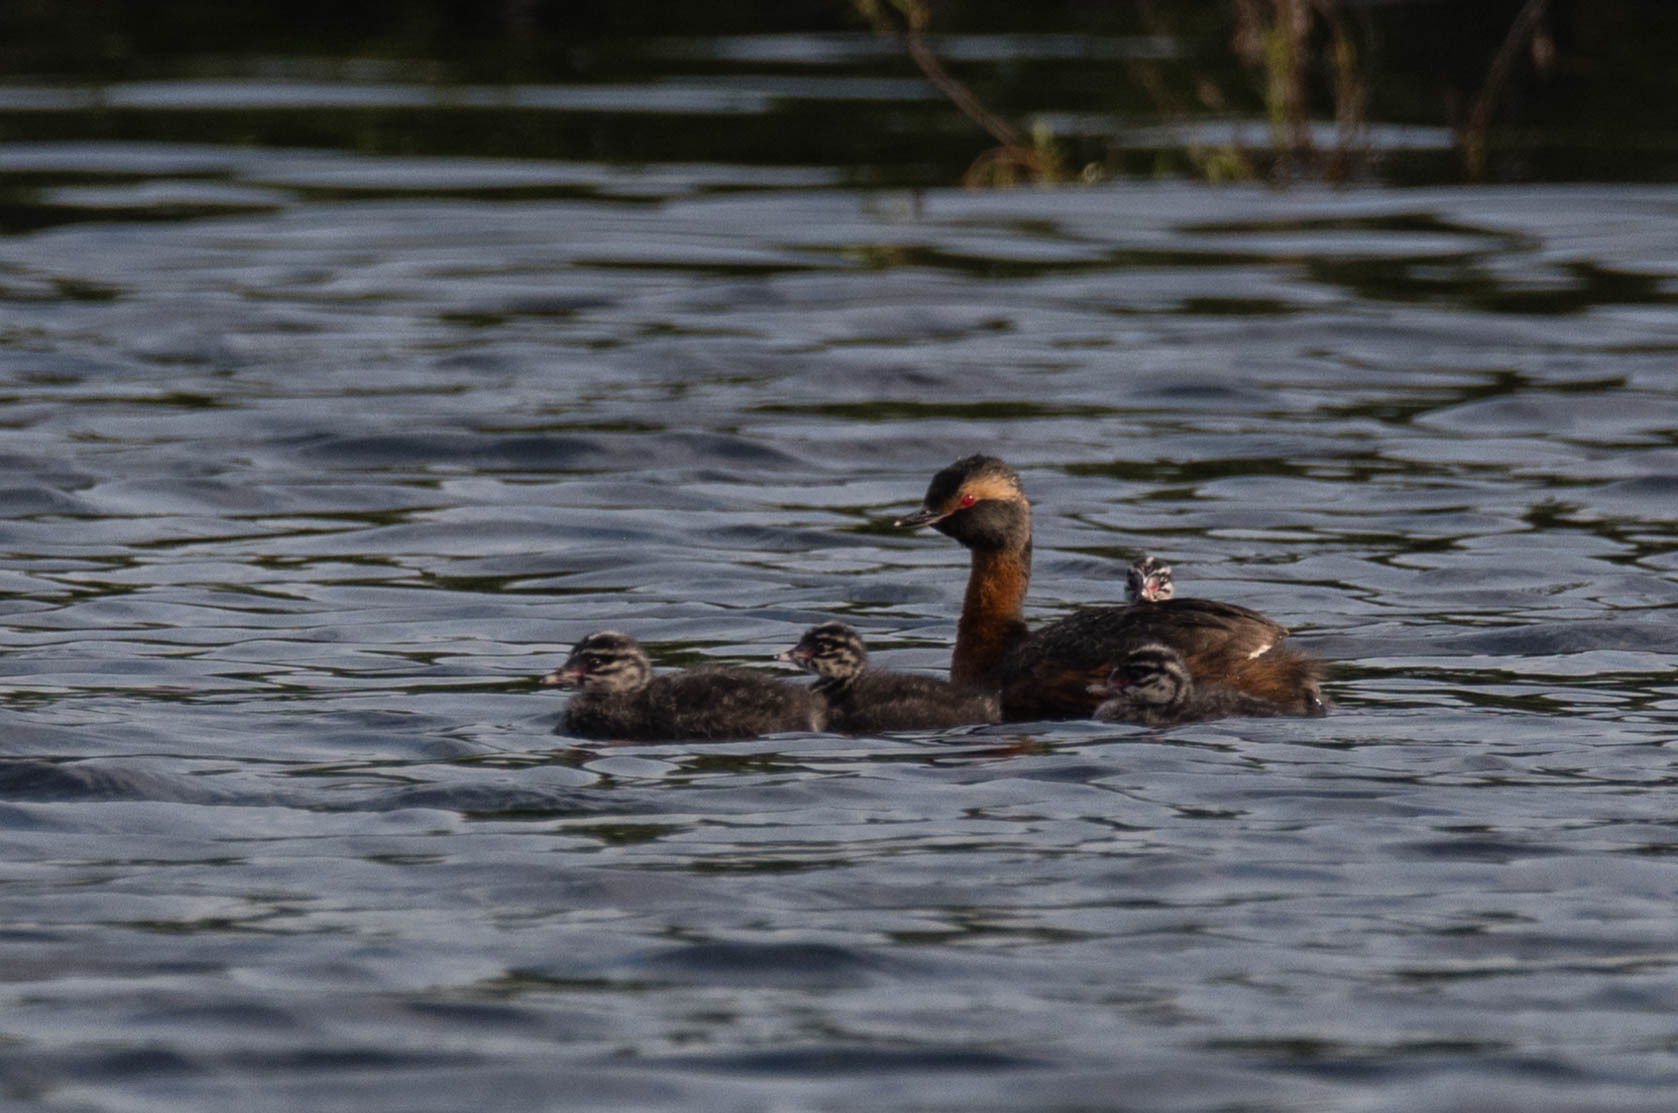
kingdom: Animalia
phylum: Chordata
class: Aves
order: Podicipediformes
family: Podicipedidae
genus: Podiceps
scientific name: Podiceps auritus
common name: Horned grebe
